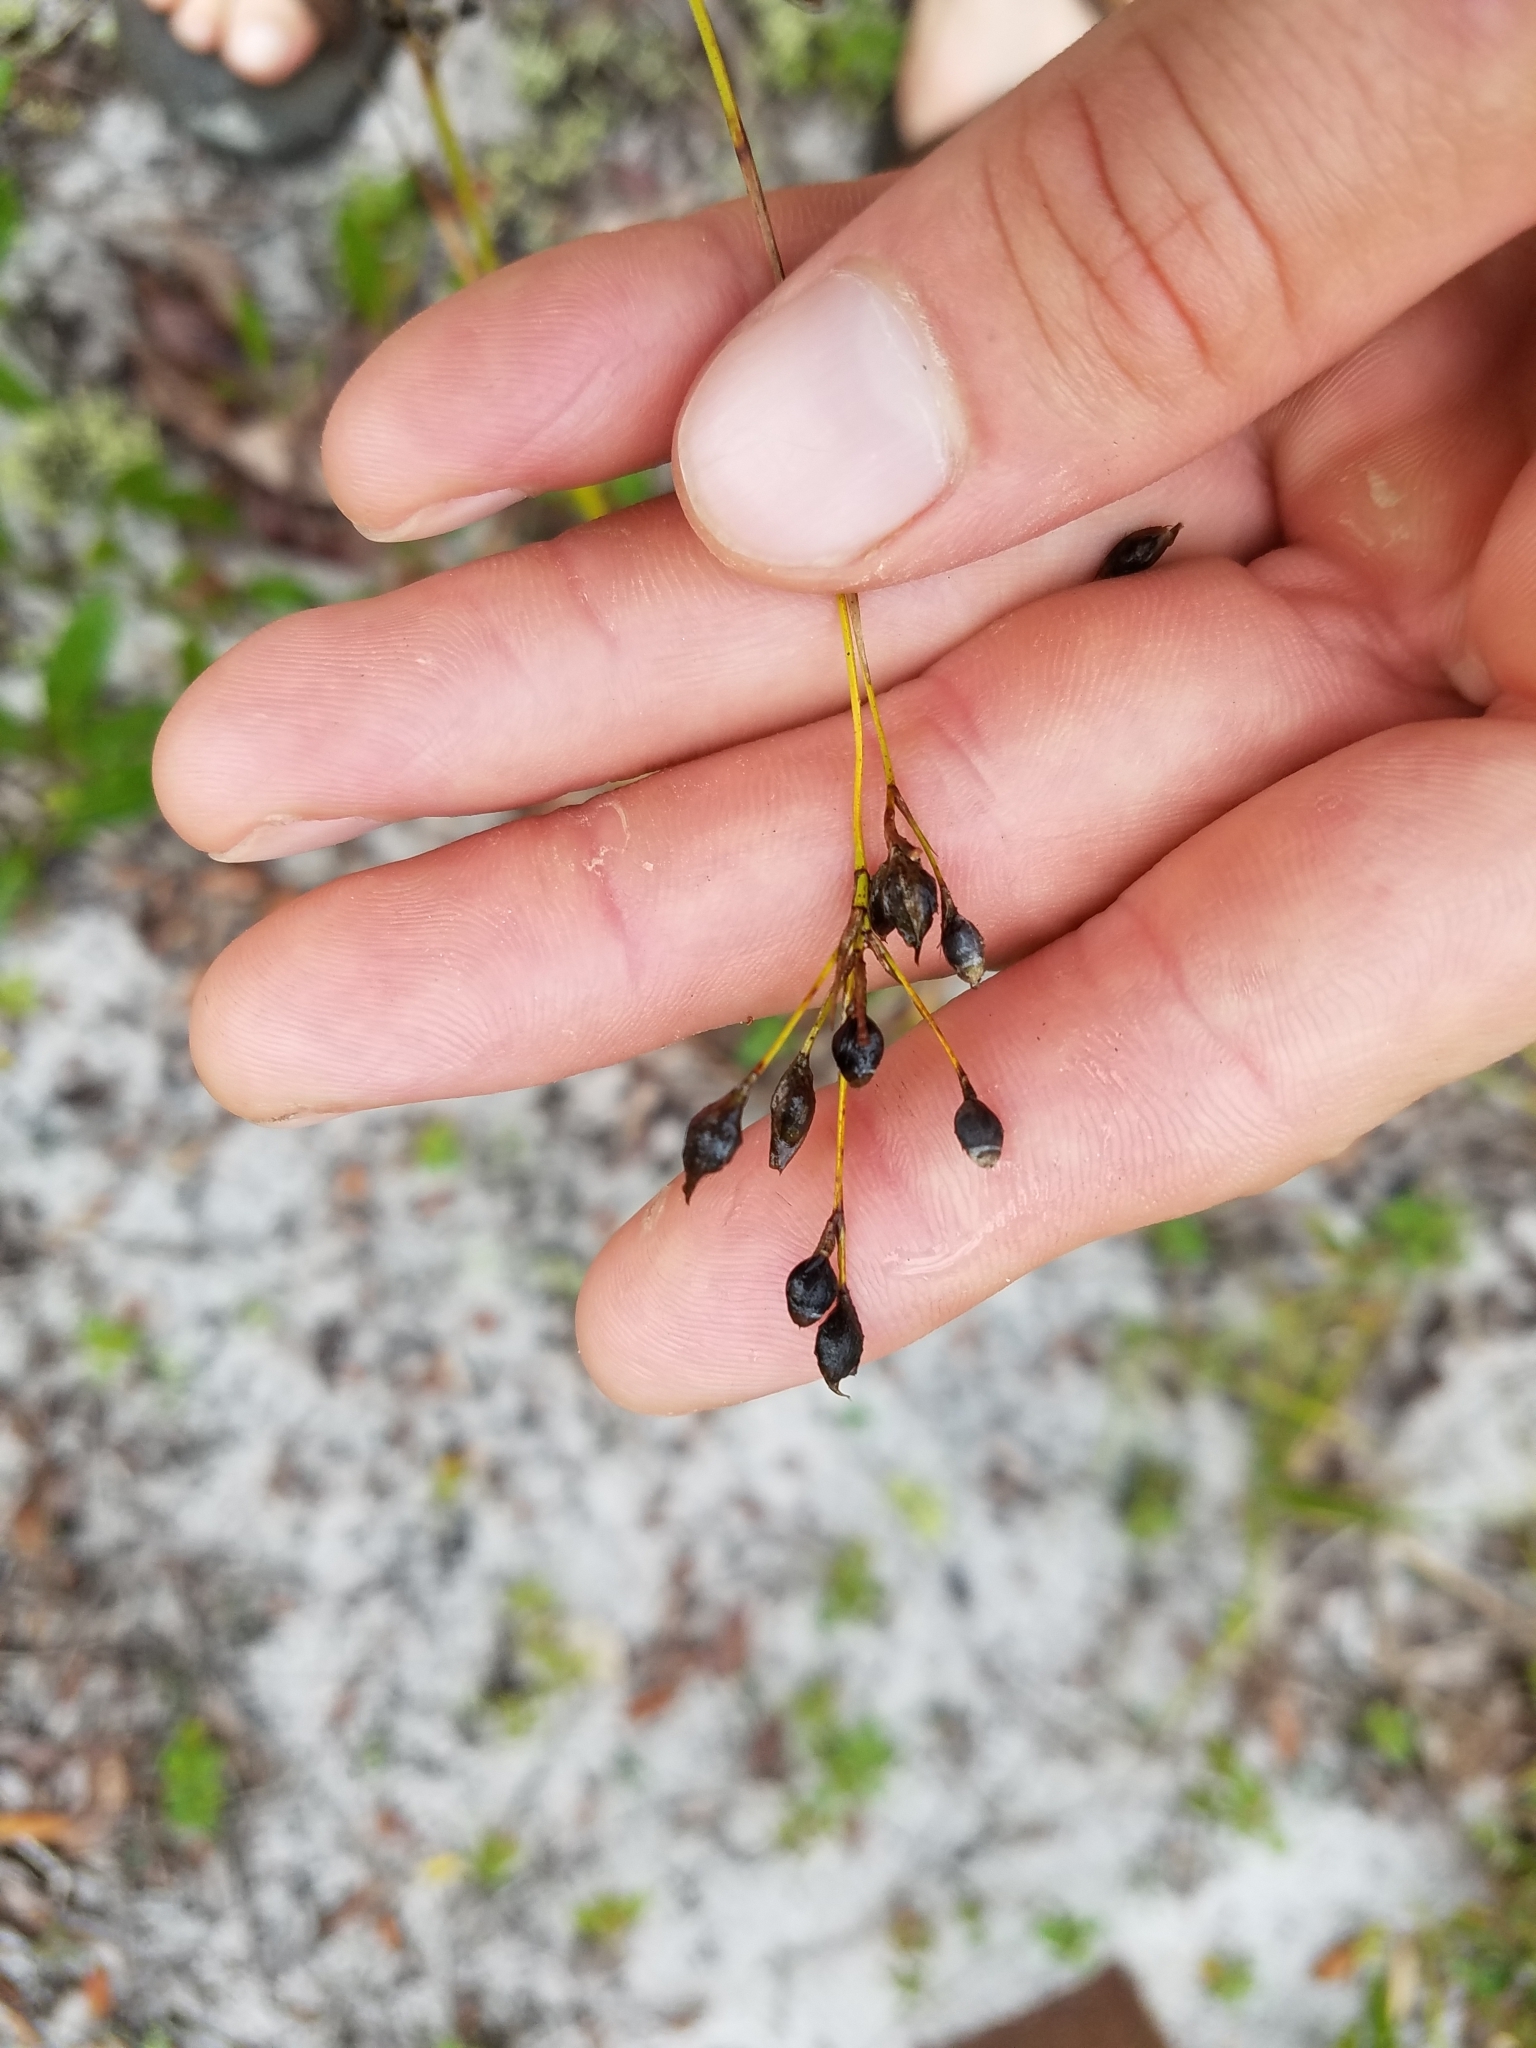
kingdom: Plantae
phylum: Tracheophyta
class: Liliopsida
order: Poales
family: Cyperaceae
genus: Rhynchospora
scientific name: Rhynchospora megalocarpa
